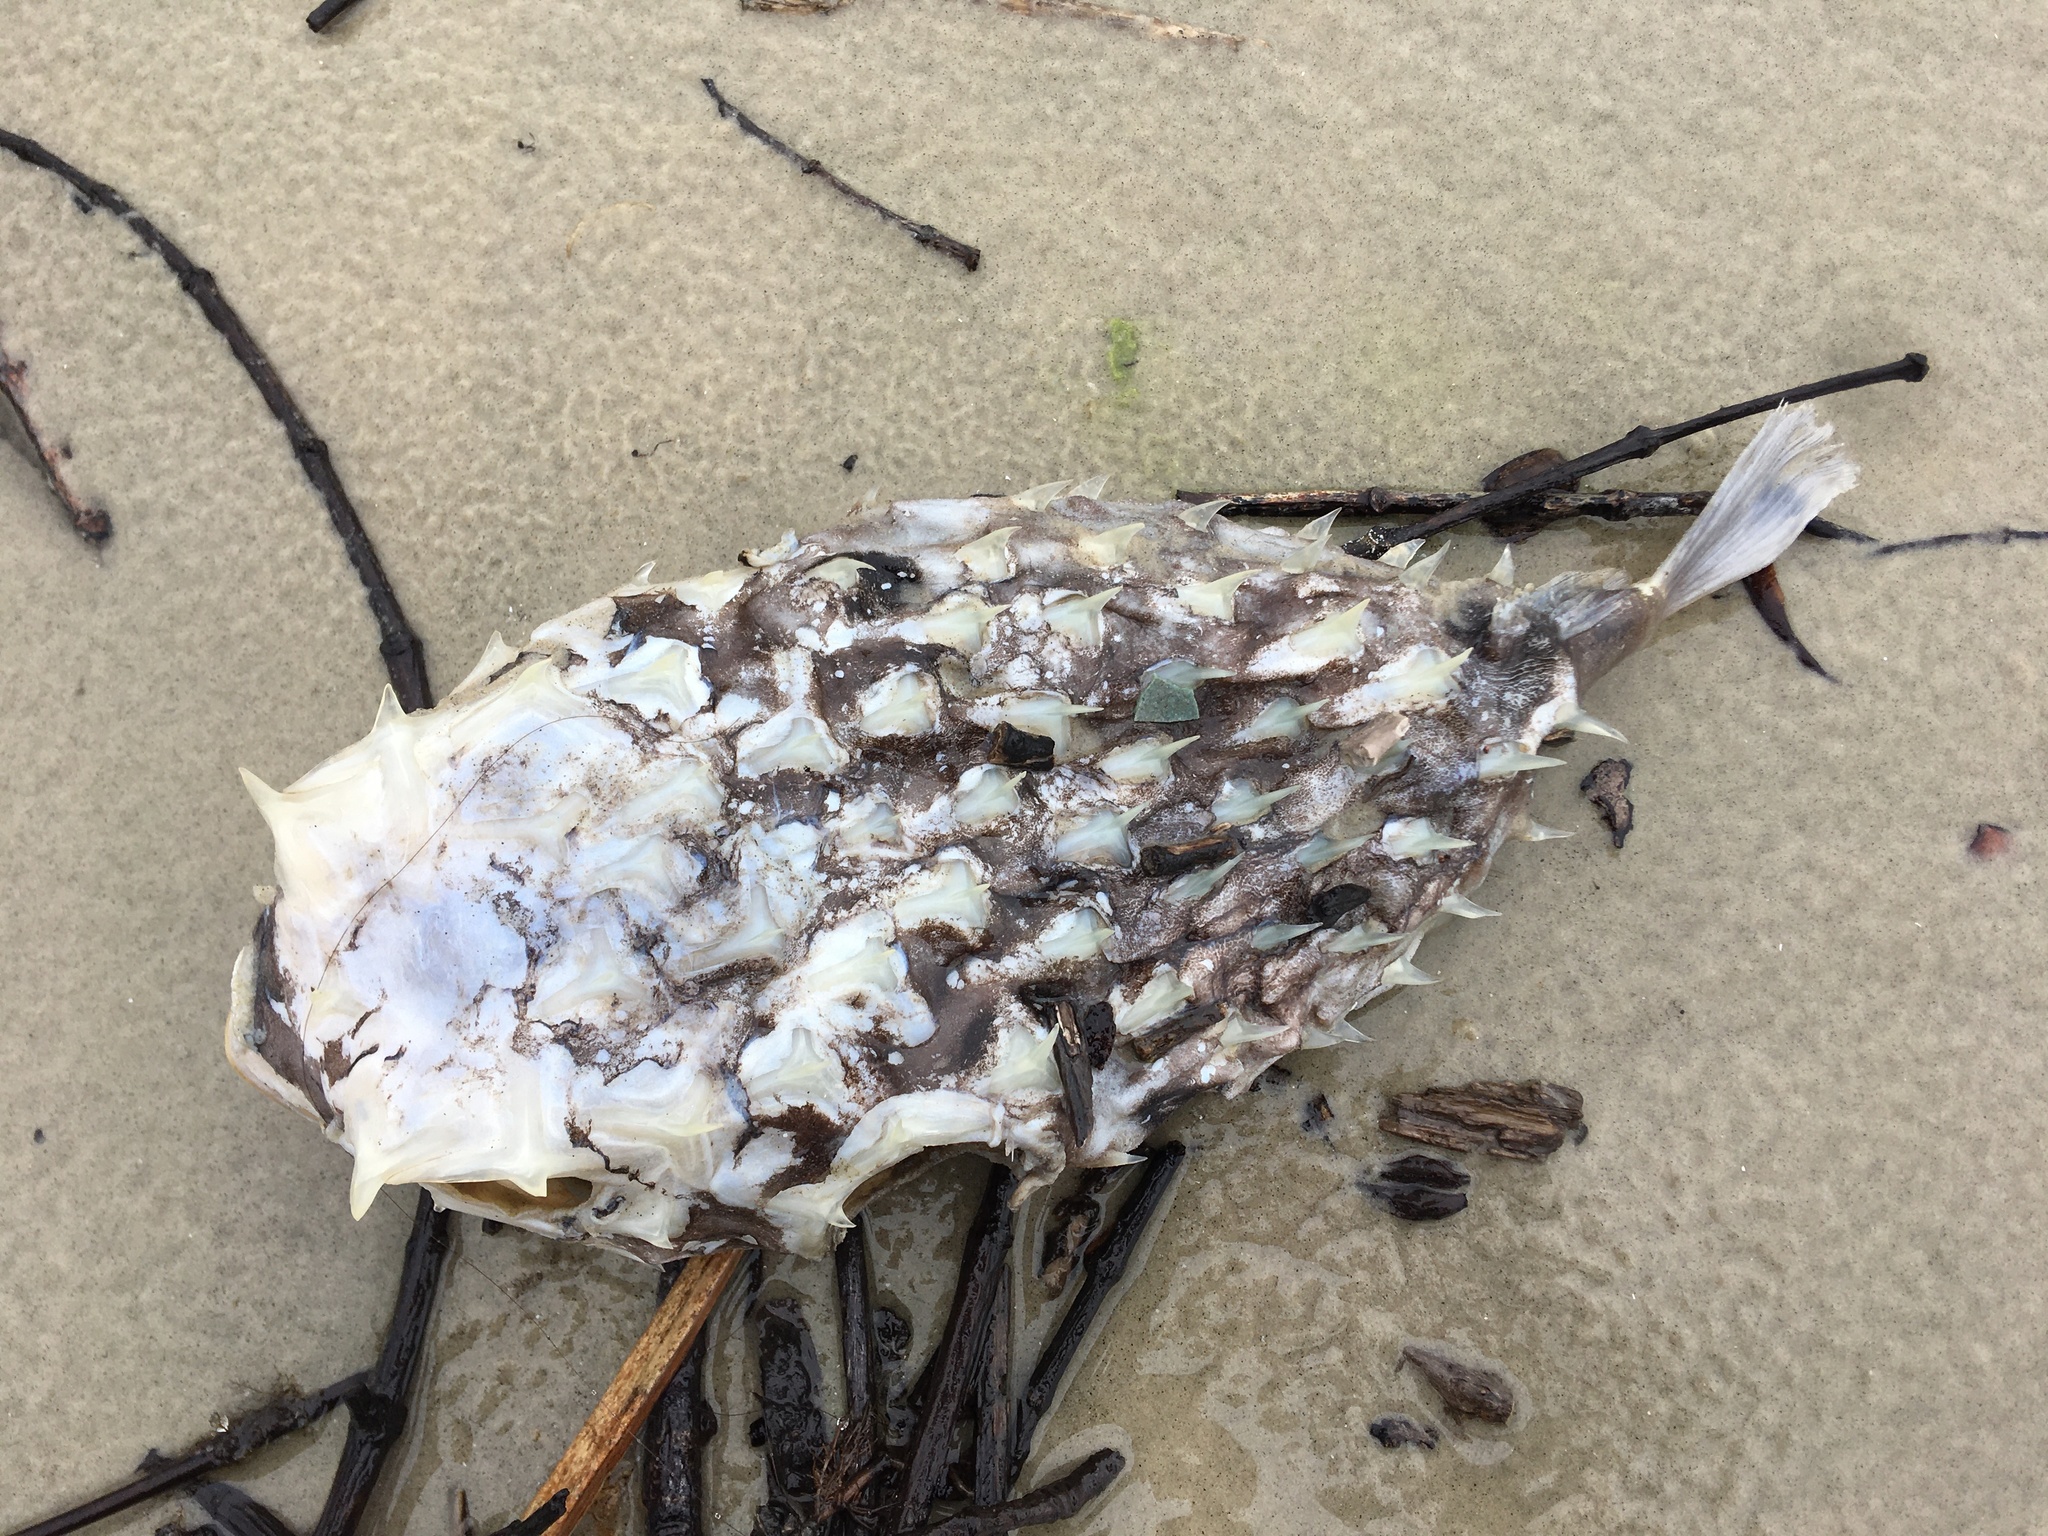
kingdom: Animalia
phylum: Chordata
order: Tetraodontiformes
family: Diodontidae
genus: Chilomycterus
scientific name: Chilomycterus
